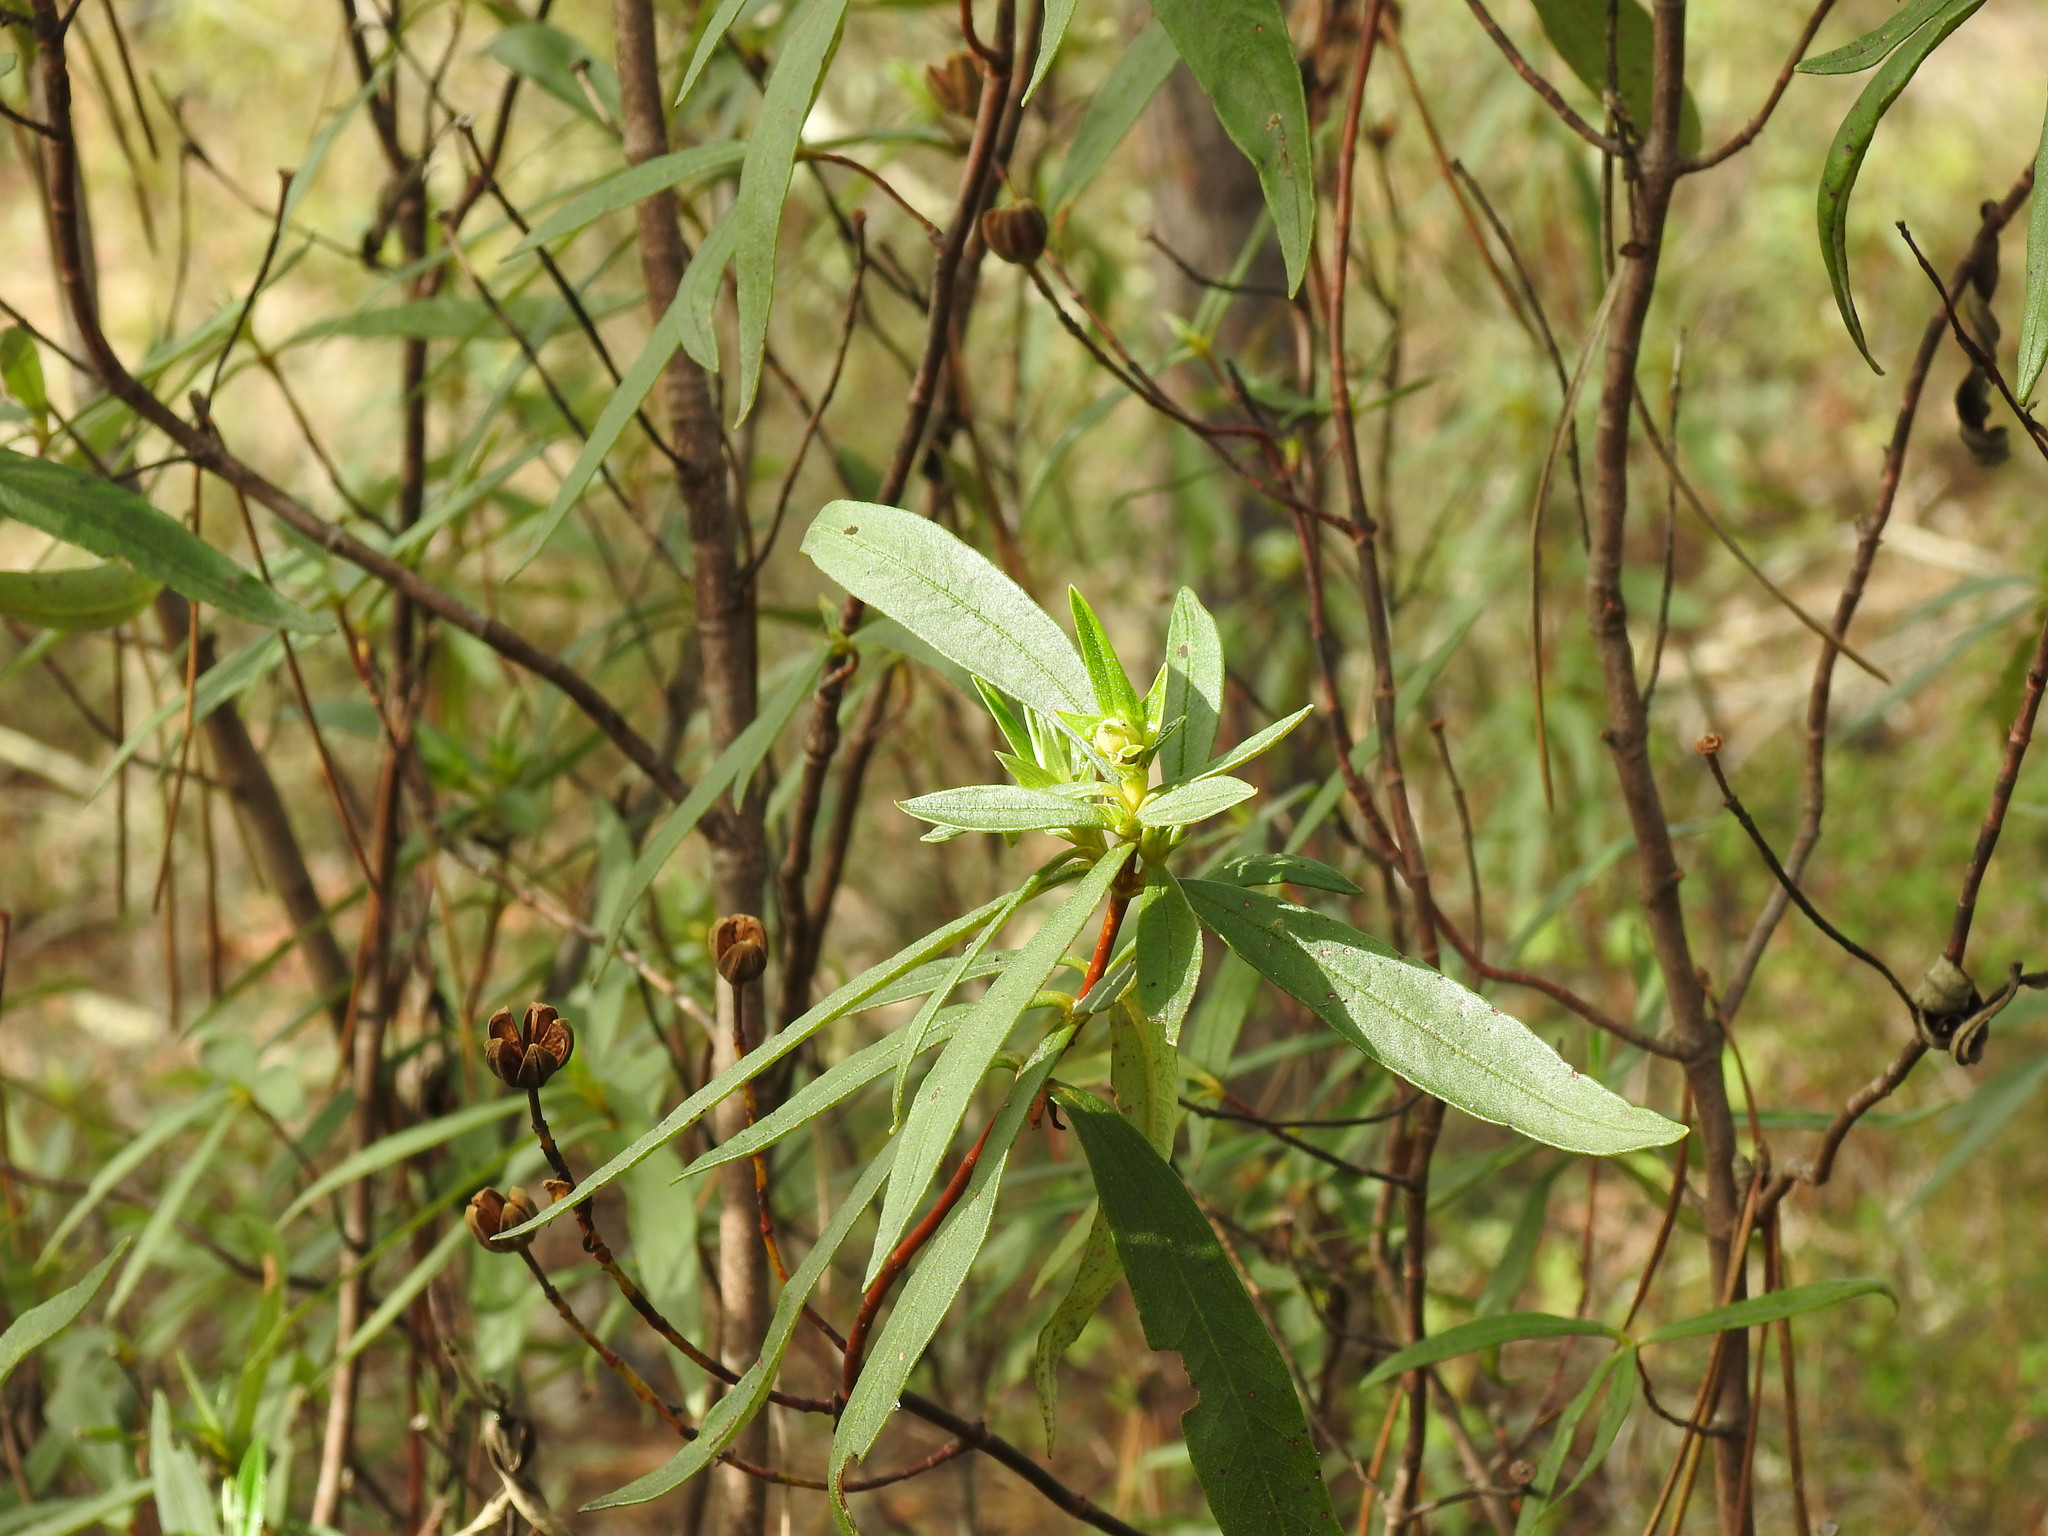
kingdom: Plantae
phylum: Tracheophyta
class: Magnoliopsida
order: Malvales
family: Cistaceae
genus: Cistus
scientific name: Cistus ladanifer
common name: Common gum cistus
